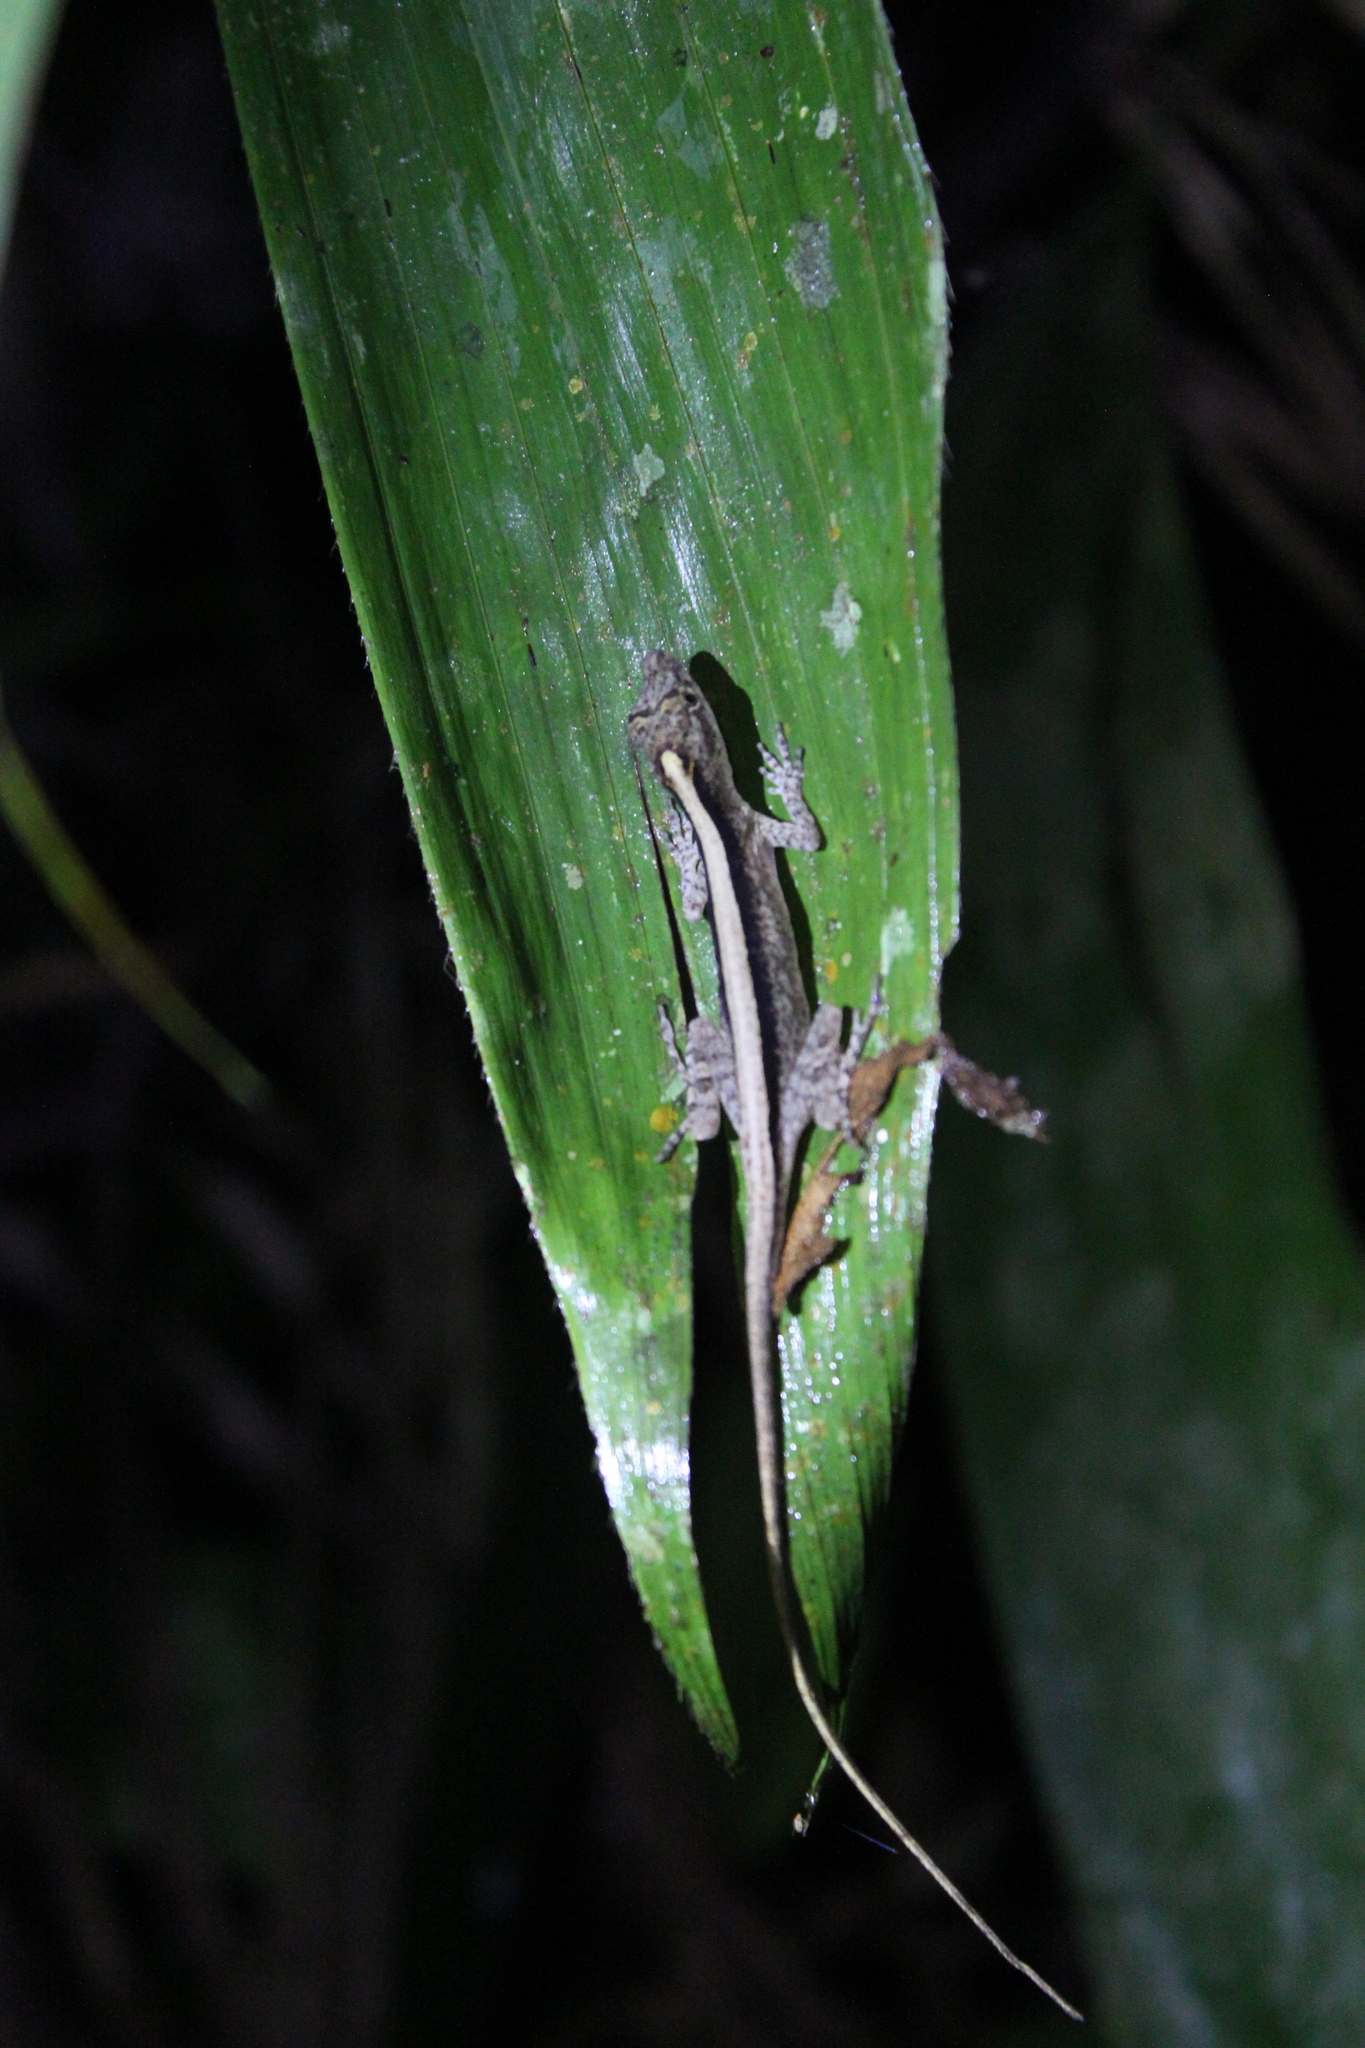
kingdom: Animalia
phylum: Chordata
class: Squamata
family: Dactyloidae
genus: Anolis
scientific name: Anolis fuscoauratus
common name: Brown-eared anole
